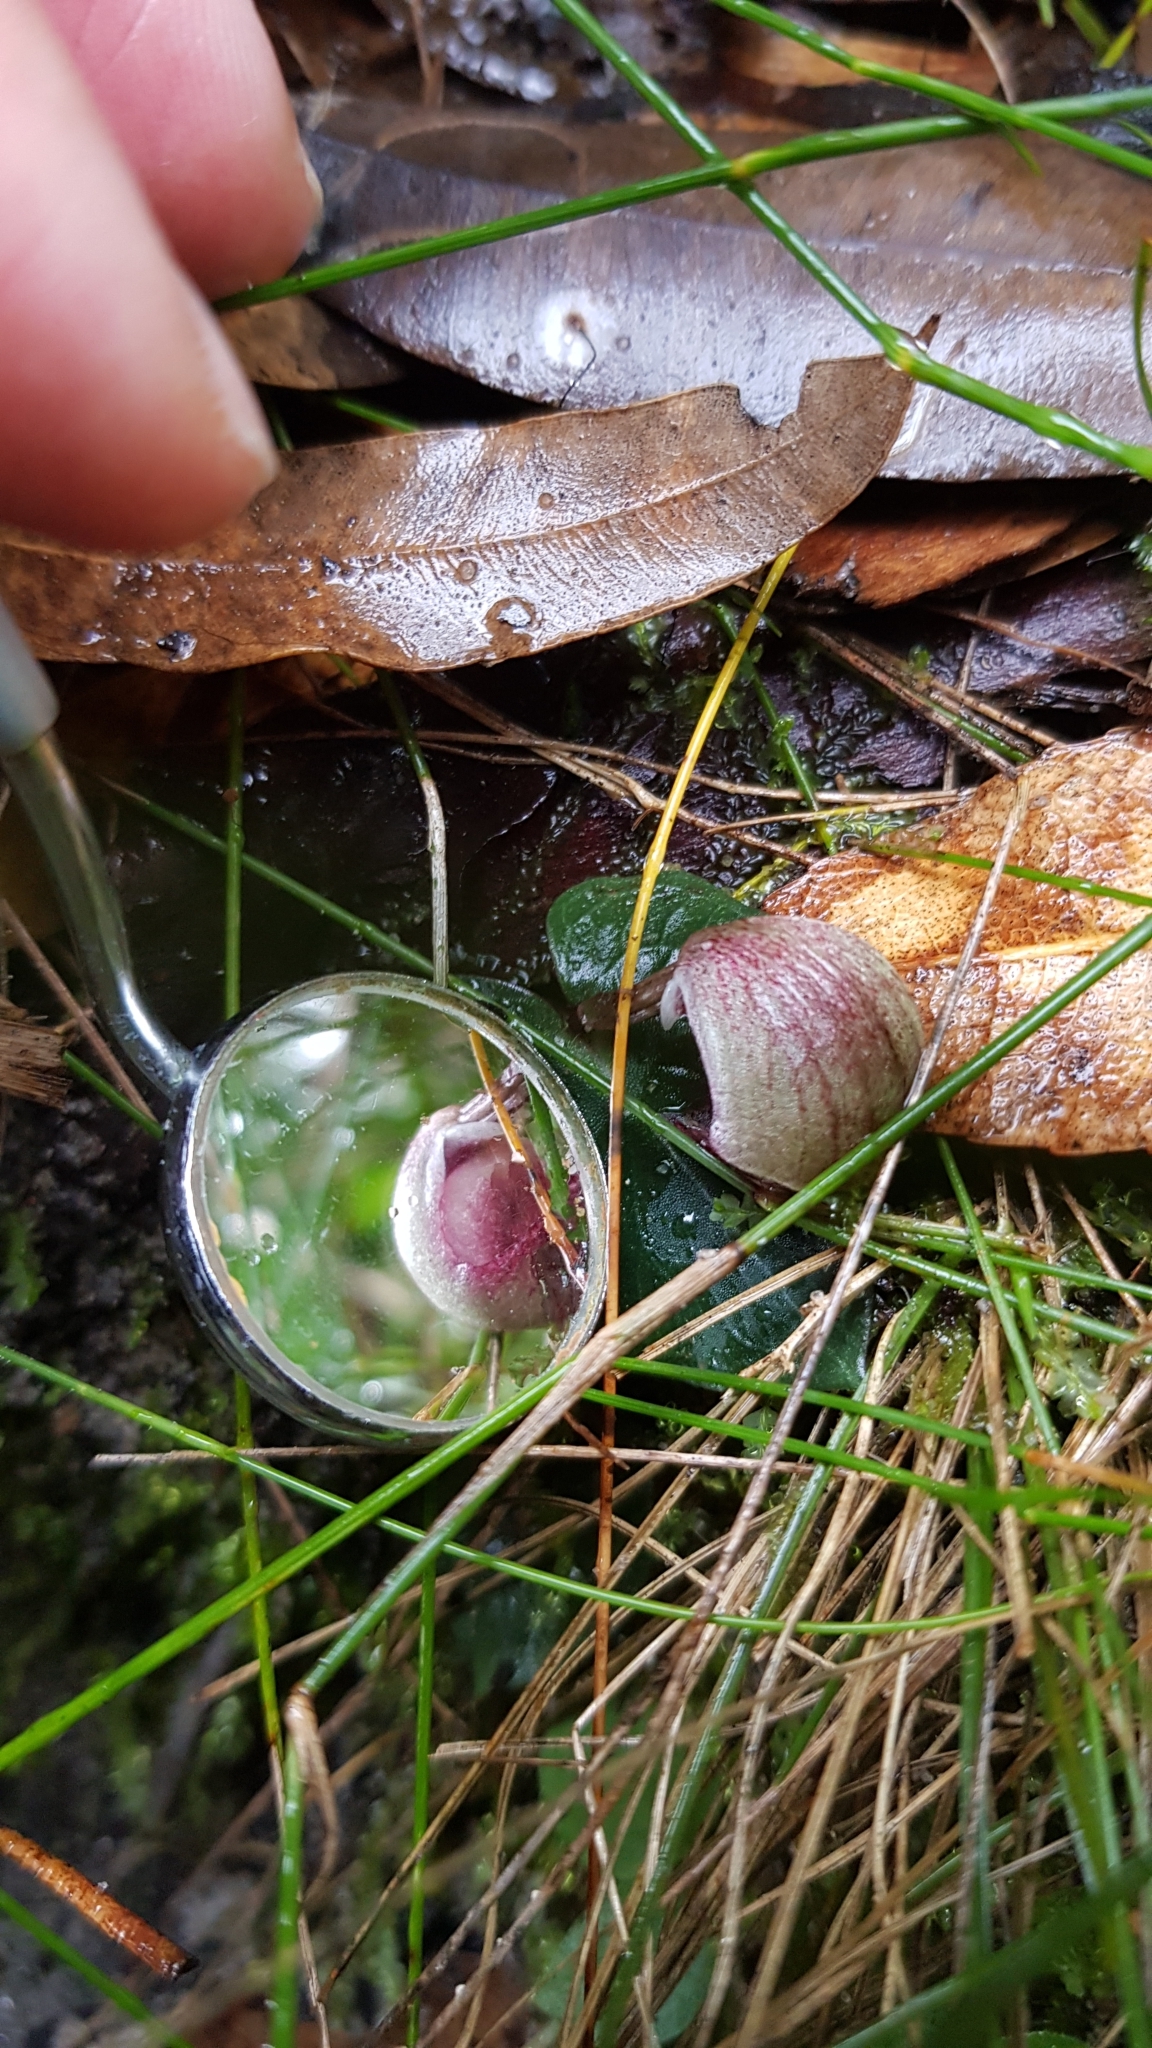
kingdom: Plantae
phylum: Tracheophyta
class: Liliopsida
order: Asparagales
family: Orchidaceae
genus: Corybas
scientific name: Corybas aconitiflorus
